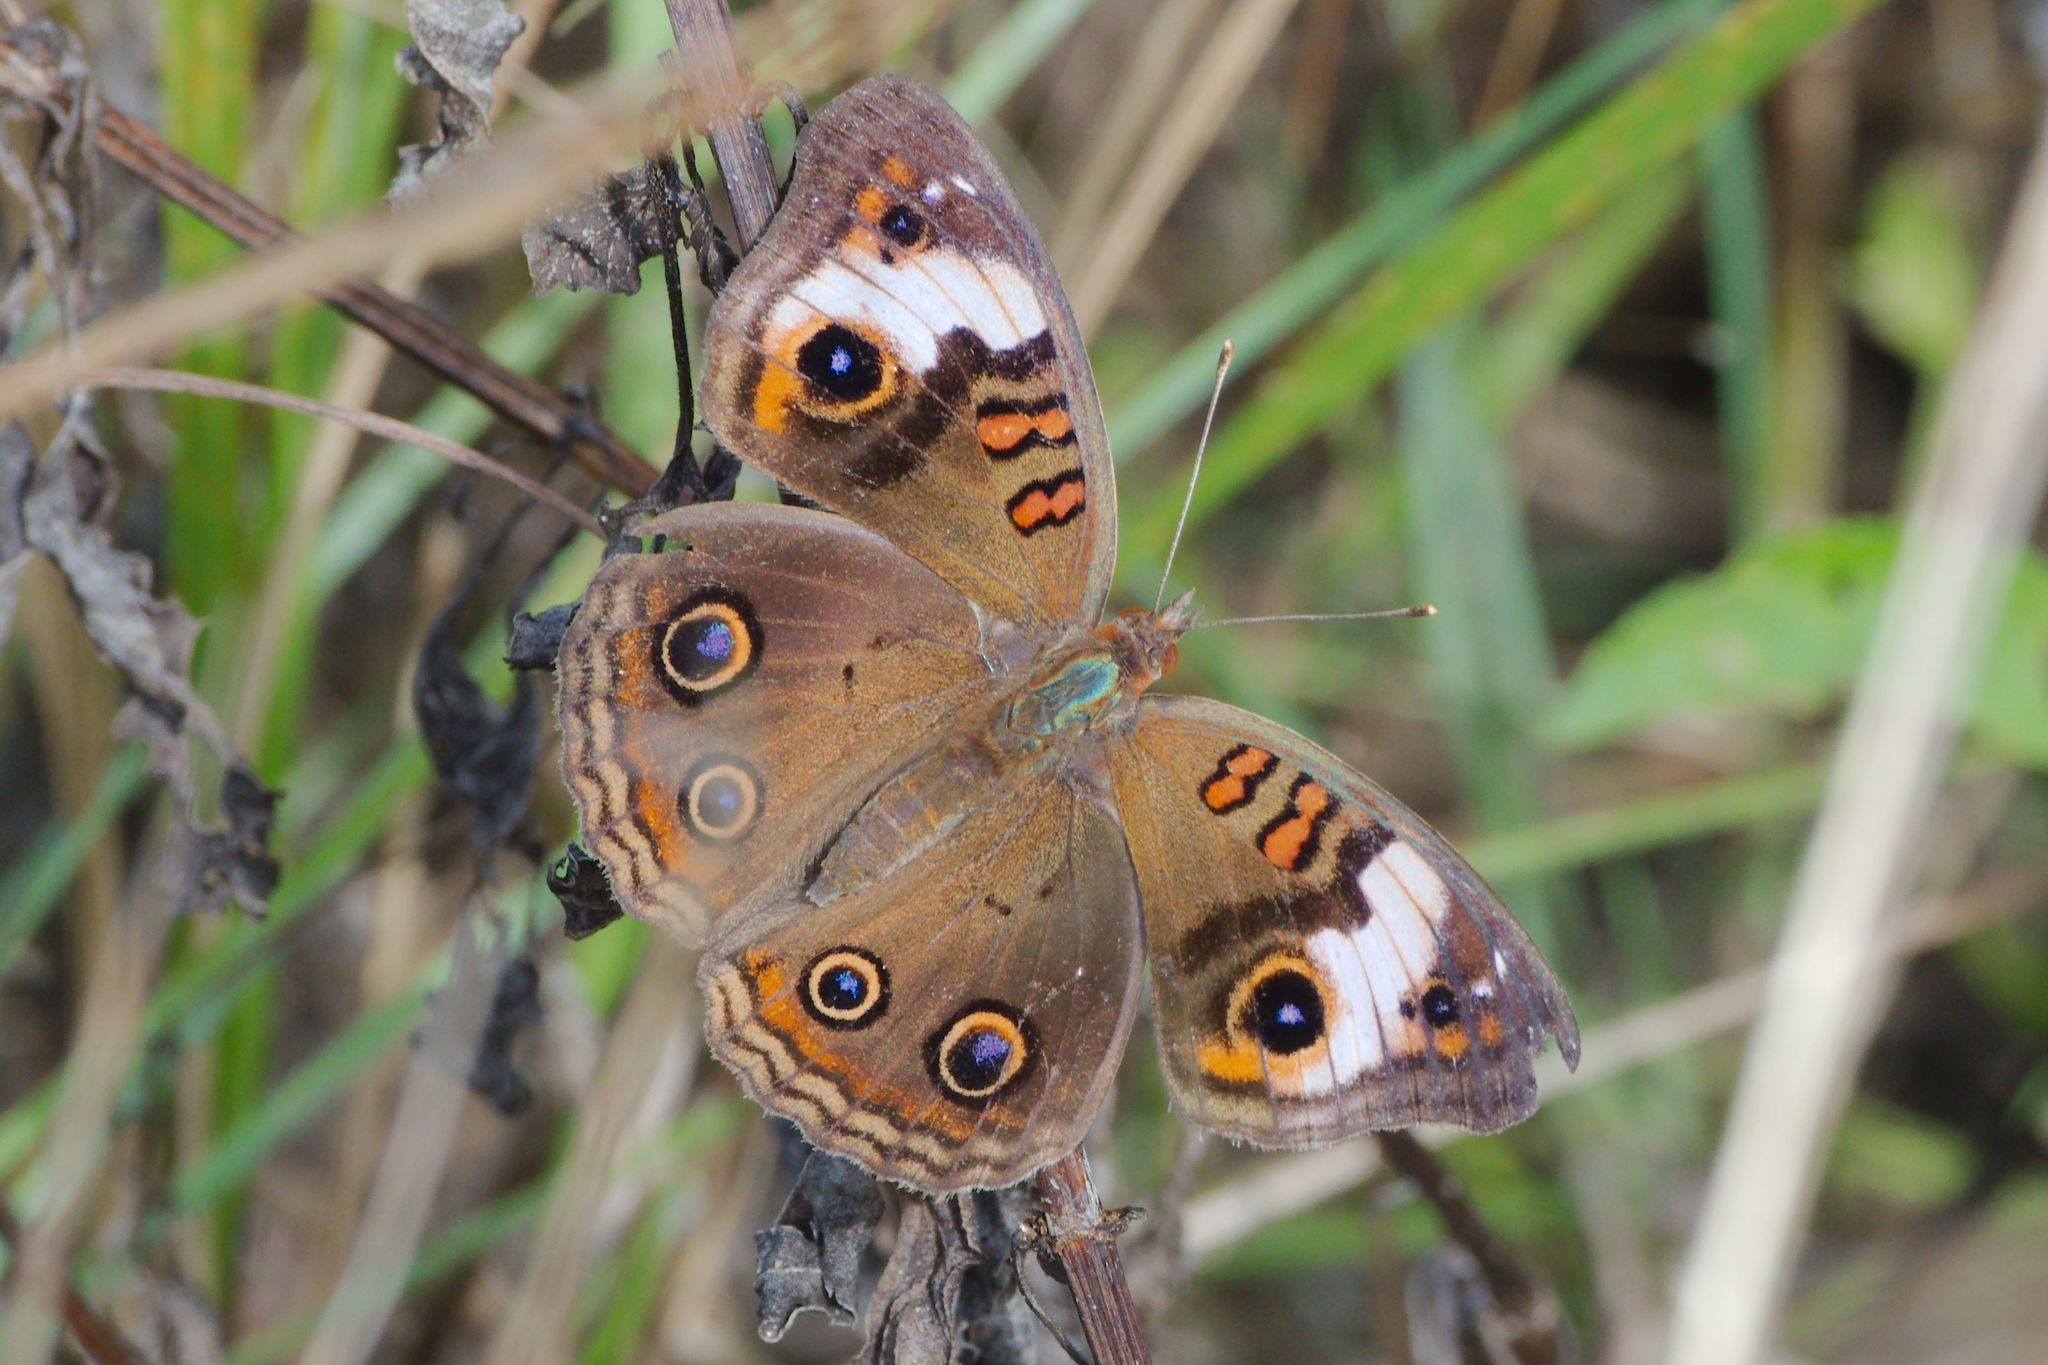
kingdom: Animalia
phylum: Arthropoda
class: Insecta
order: Lepidoptera
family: Nymphalidae
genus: Junonia
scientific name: Junonia lavinia
